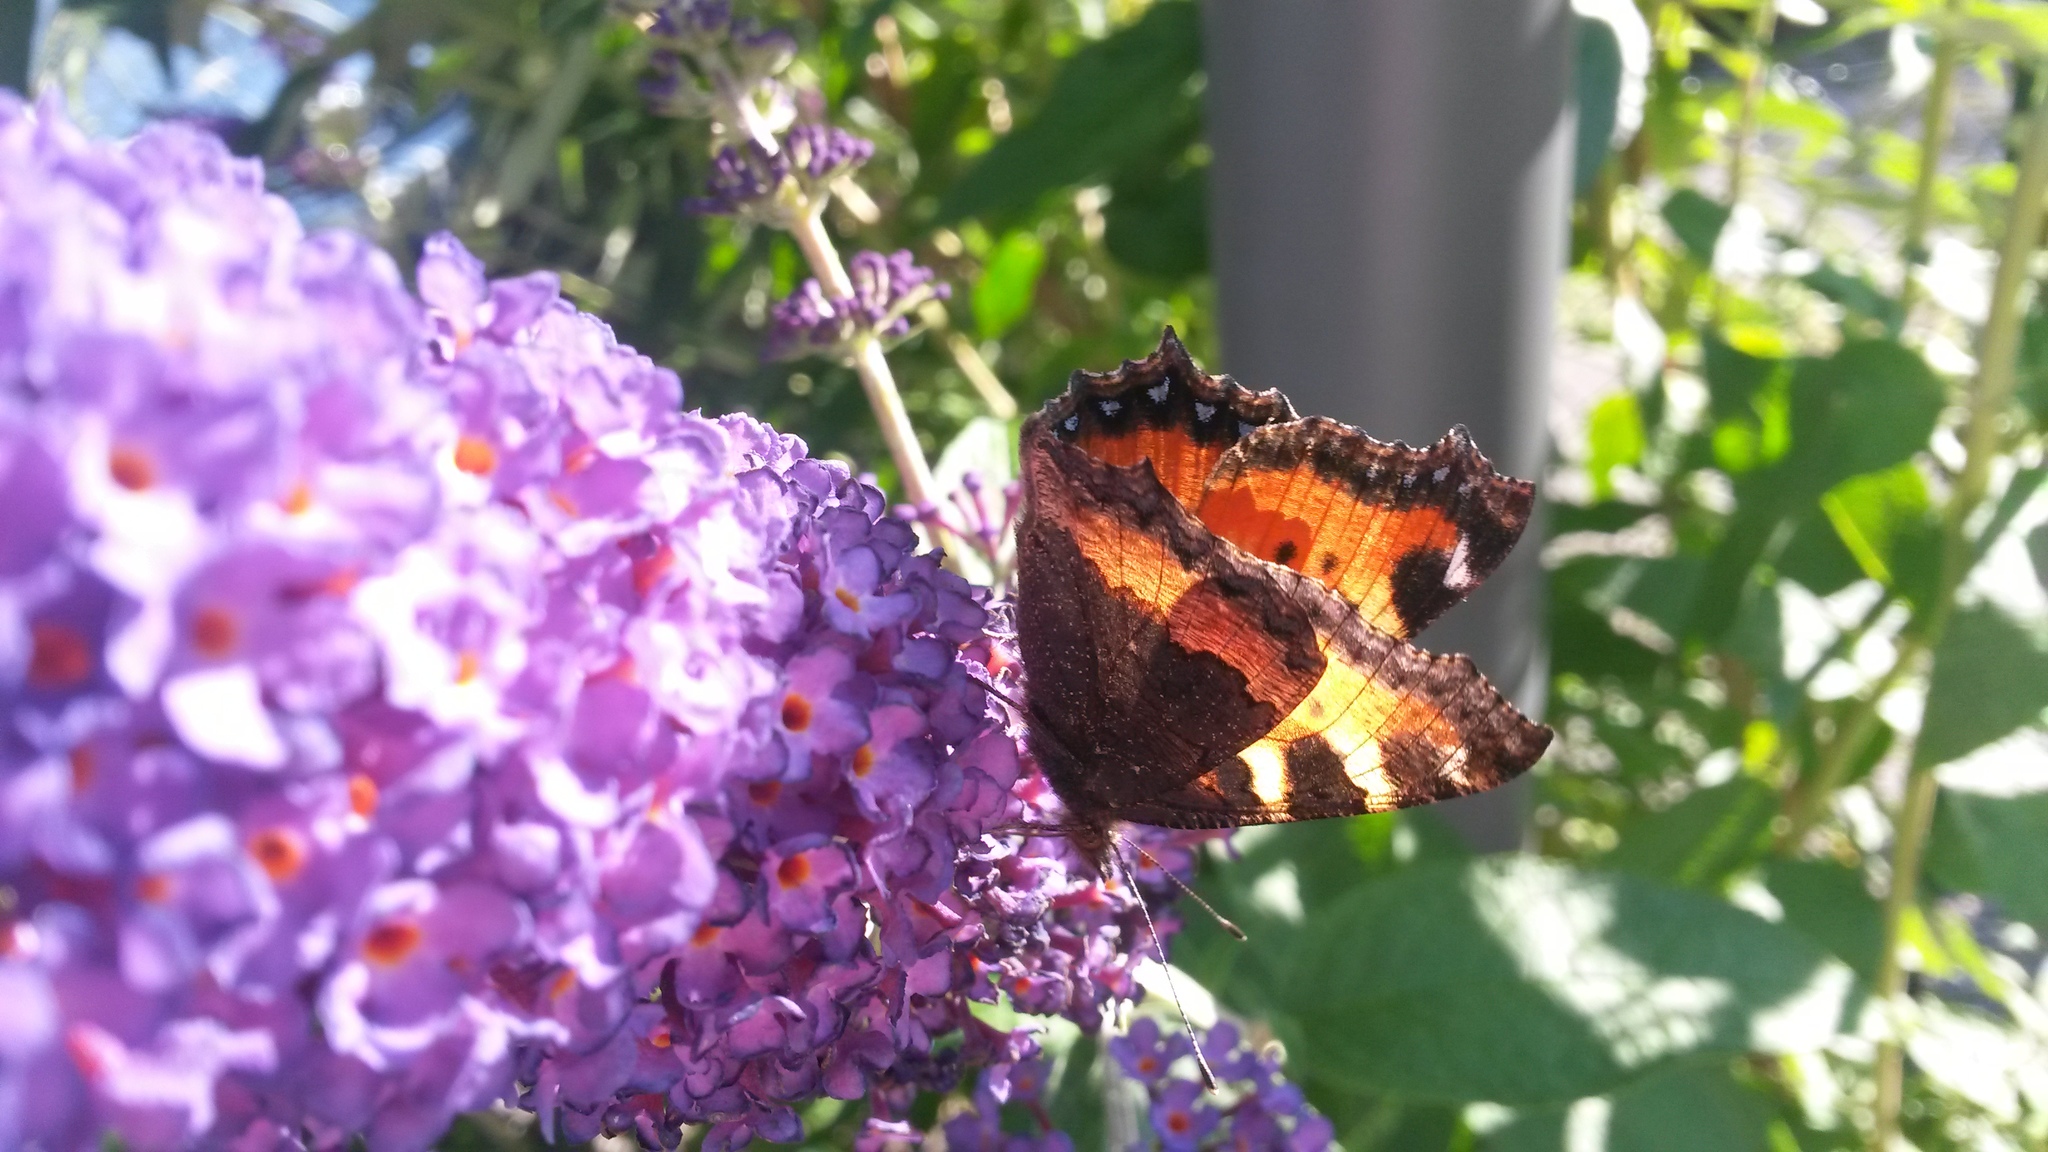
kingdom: Animalia
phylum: Arthropoda
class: Insecta
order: Lepidoptera
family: Nymphalidae
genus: Aglais
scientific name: Aglais urticae
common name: Small tortoiseshell
